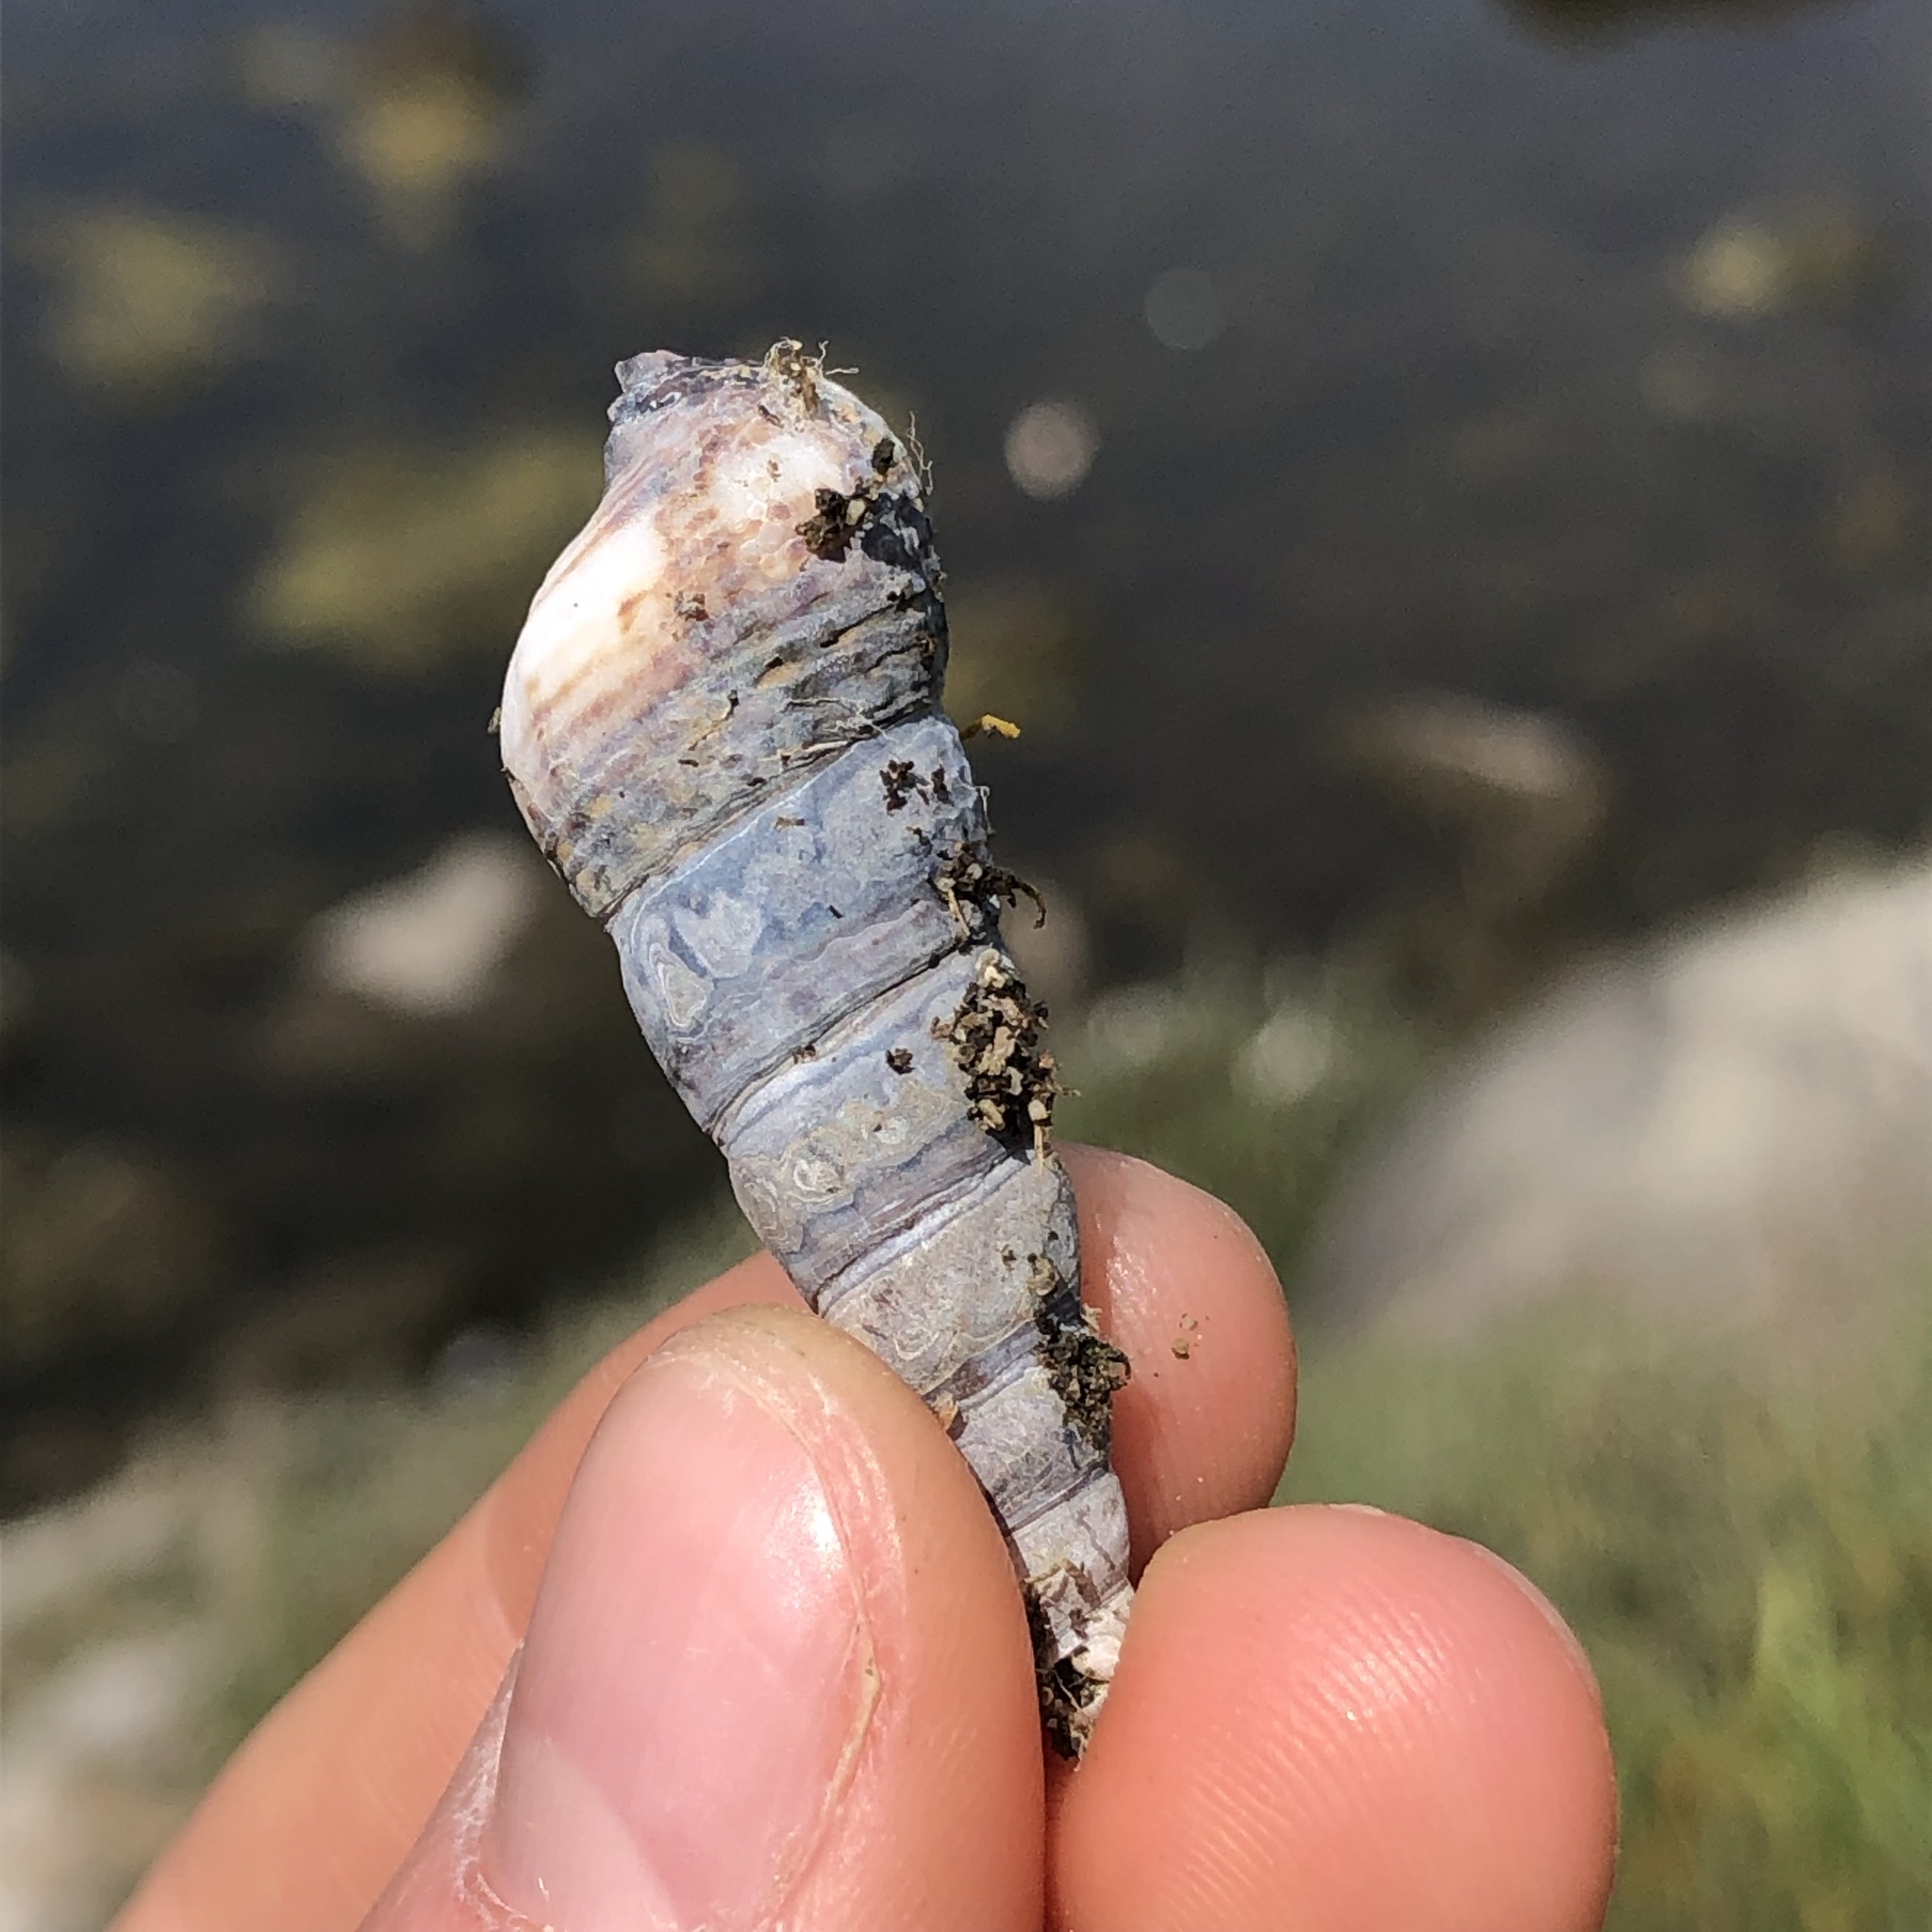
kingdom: Animalia
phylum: Mollusca
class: Gastropoda
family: Batillariidae
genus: Batillaria
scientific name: Batillaria attramentaria
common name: Japanese false cerith
